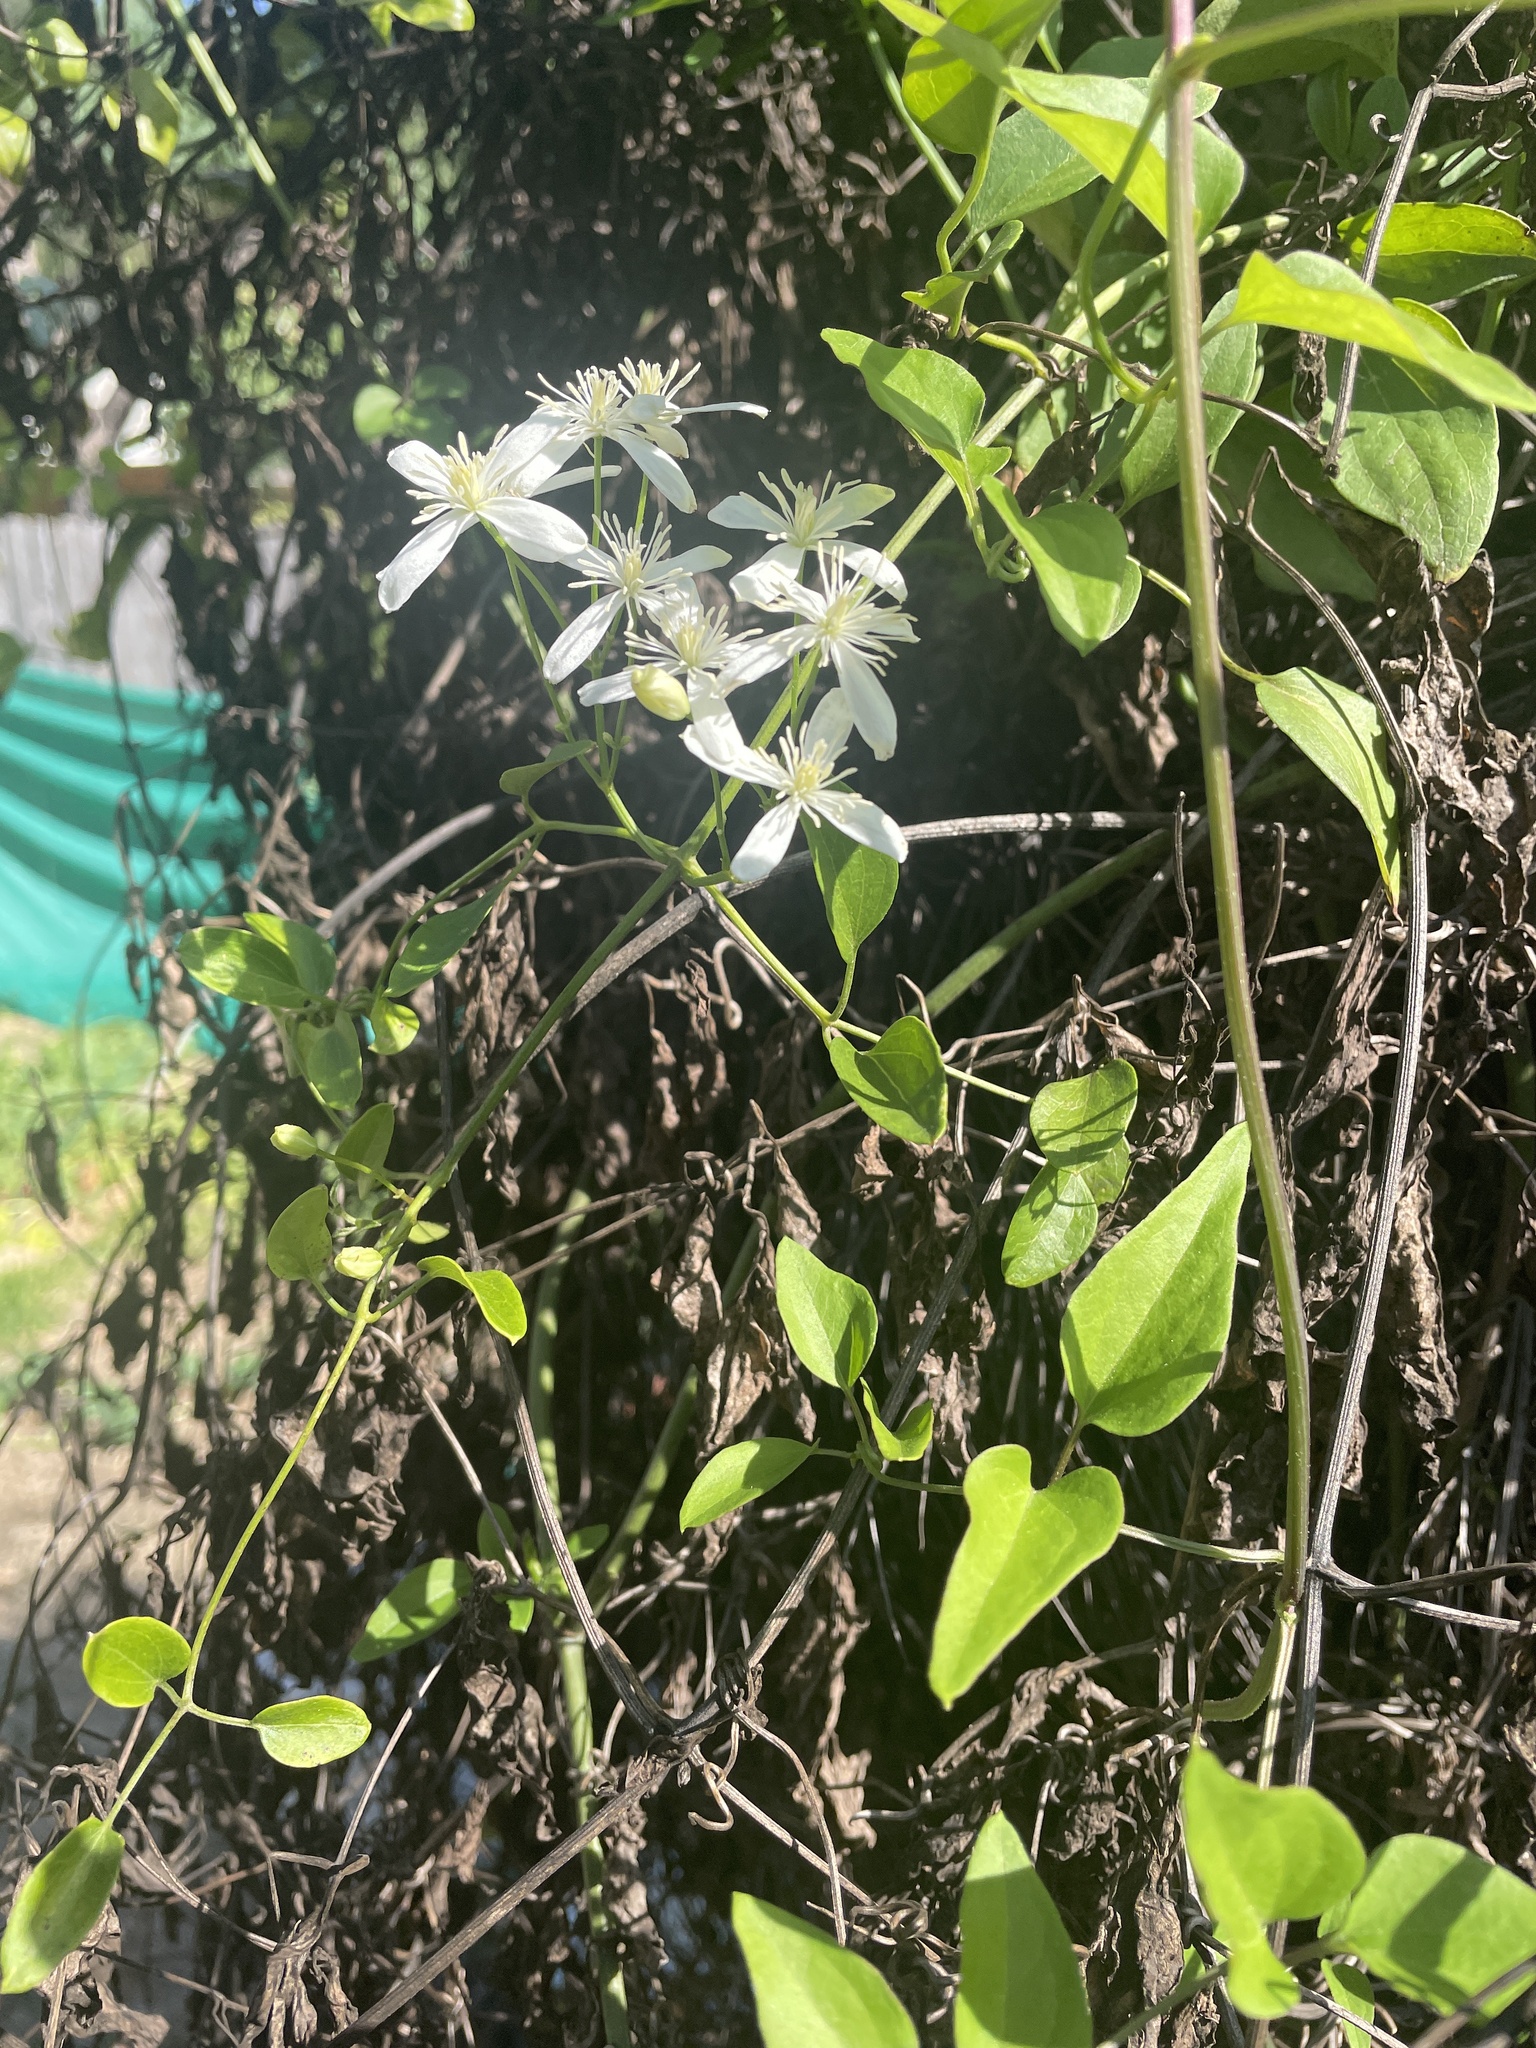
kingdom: Plantae
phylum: Tracheophyta
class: Magnoliopsida
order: Ranunculales
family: Ranunculaceae
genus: Clematis
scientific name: Clematis terniflora
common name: Sweet autumn clematis
